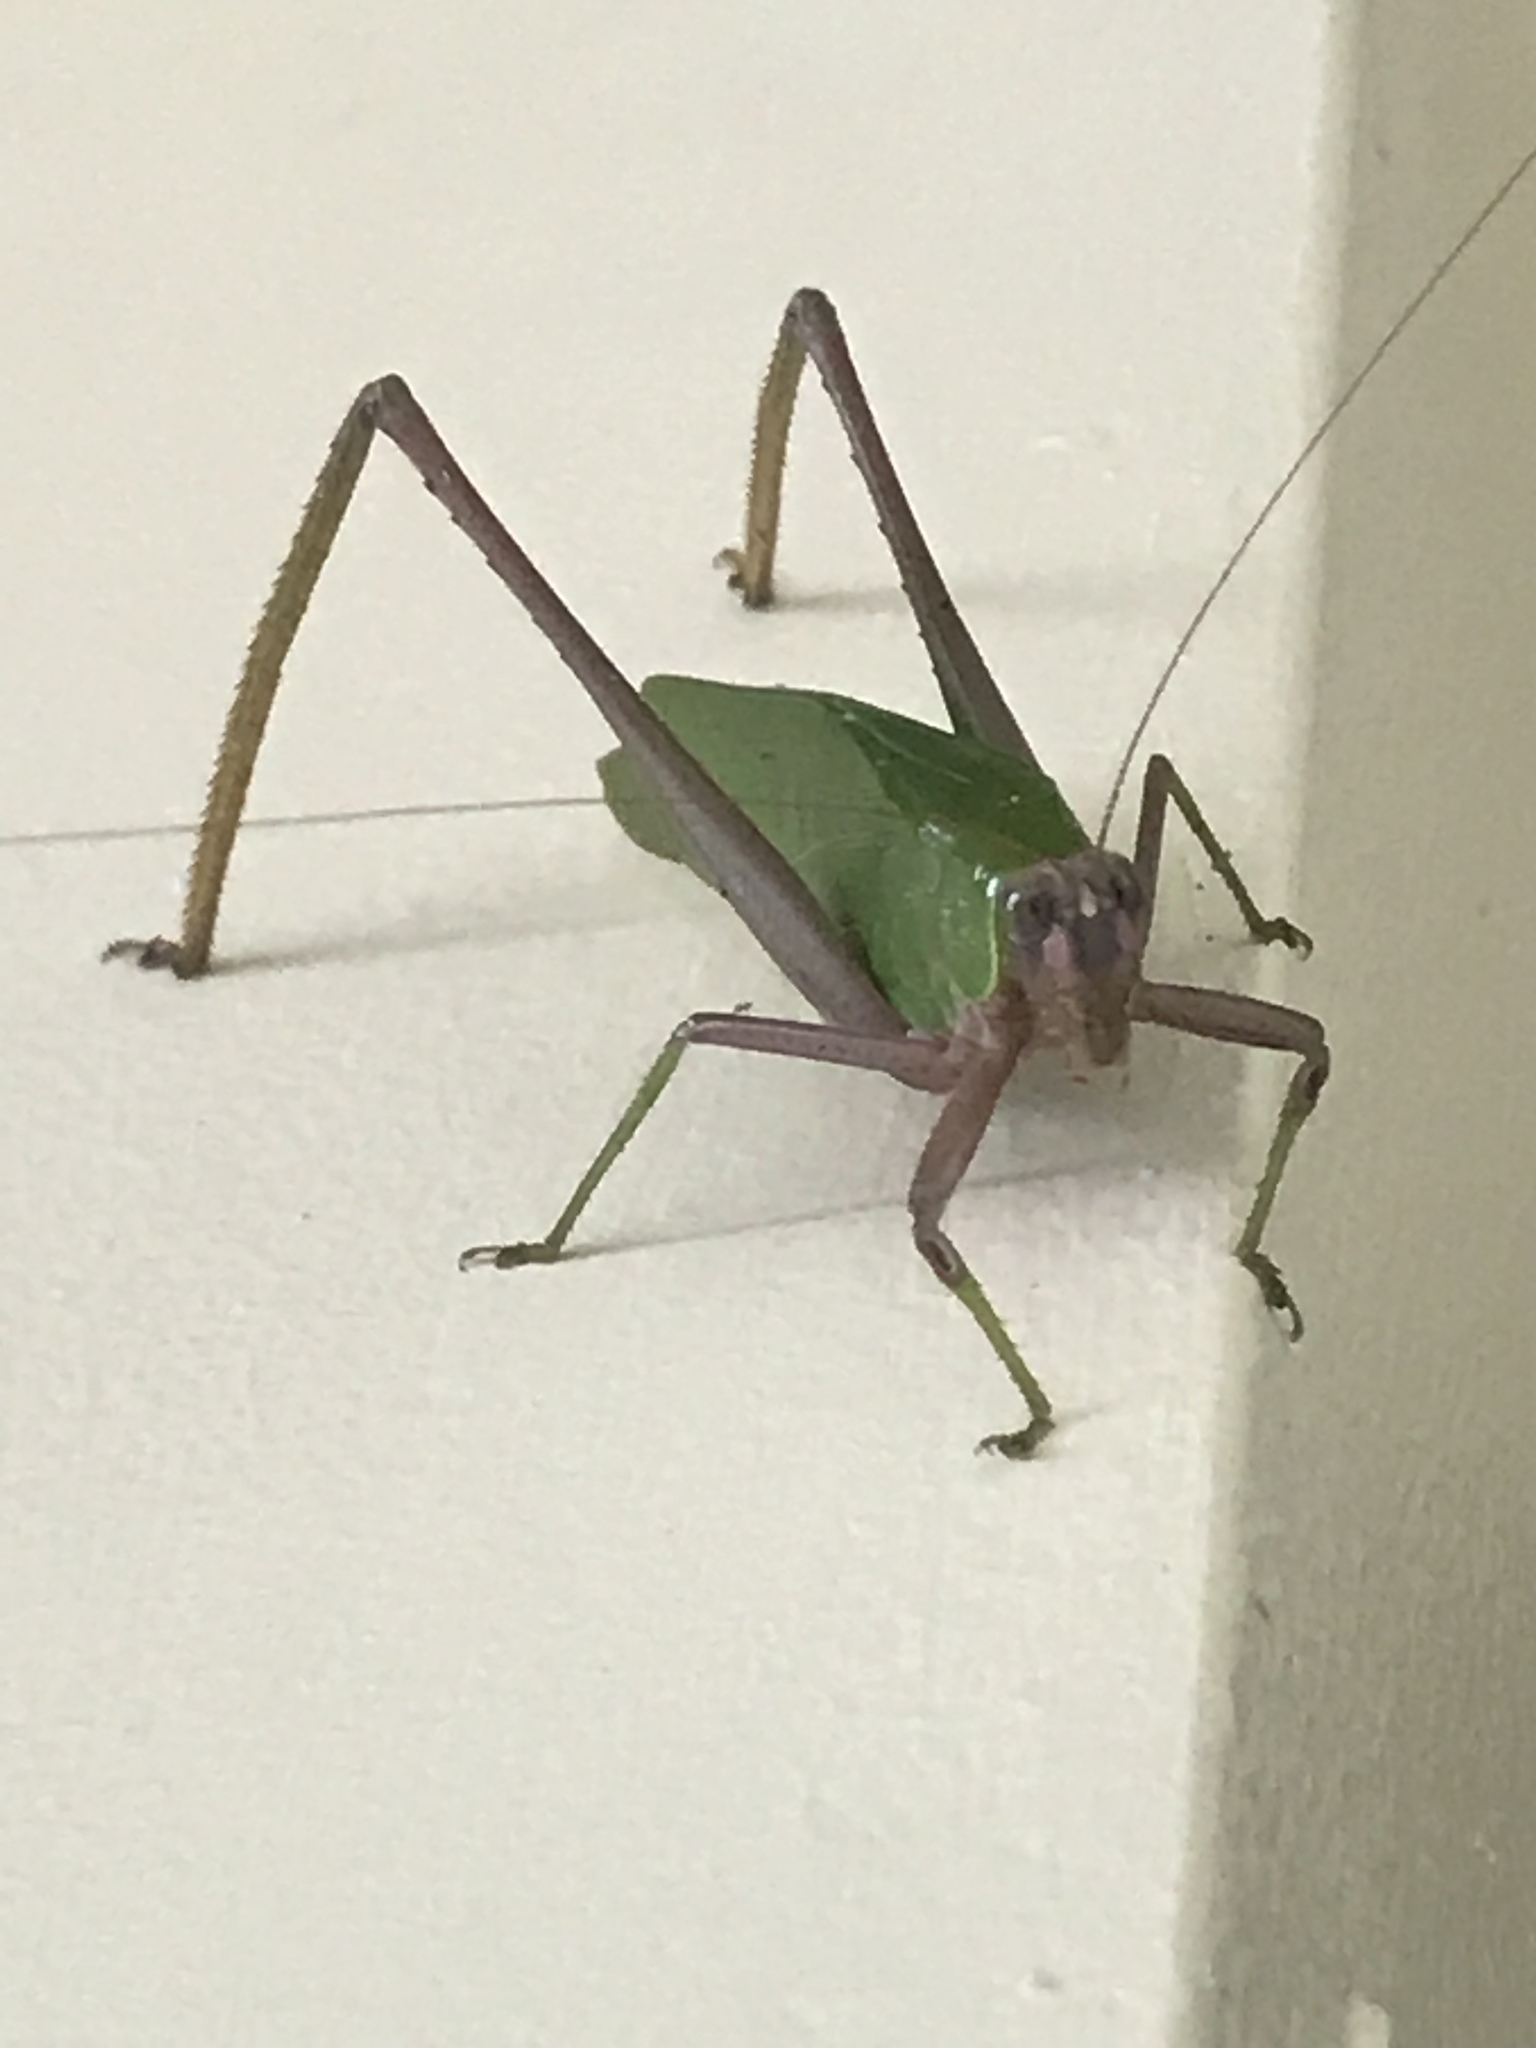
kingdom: Animalia
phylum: Arthropoda
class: Insecta
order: Orthoptera
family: Tettigoniidae
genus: Ceraia
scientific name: Ceraia tibialoides
